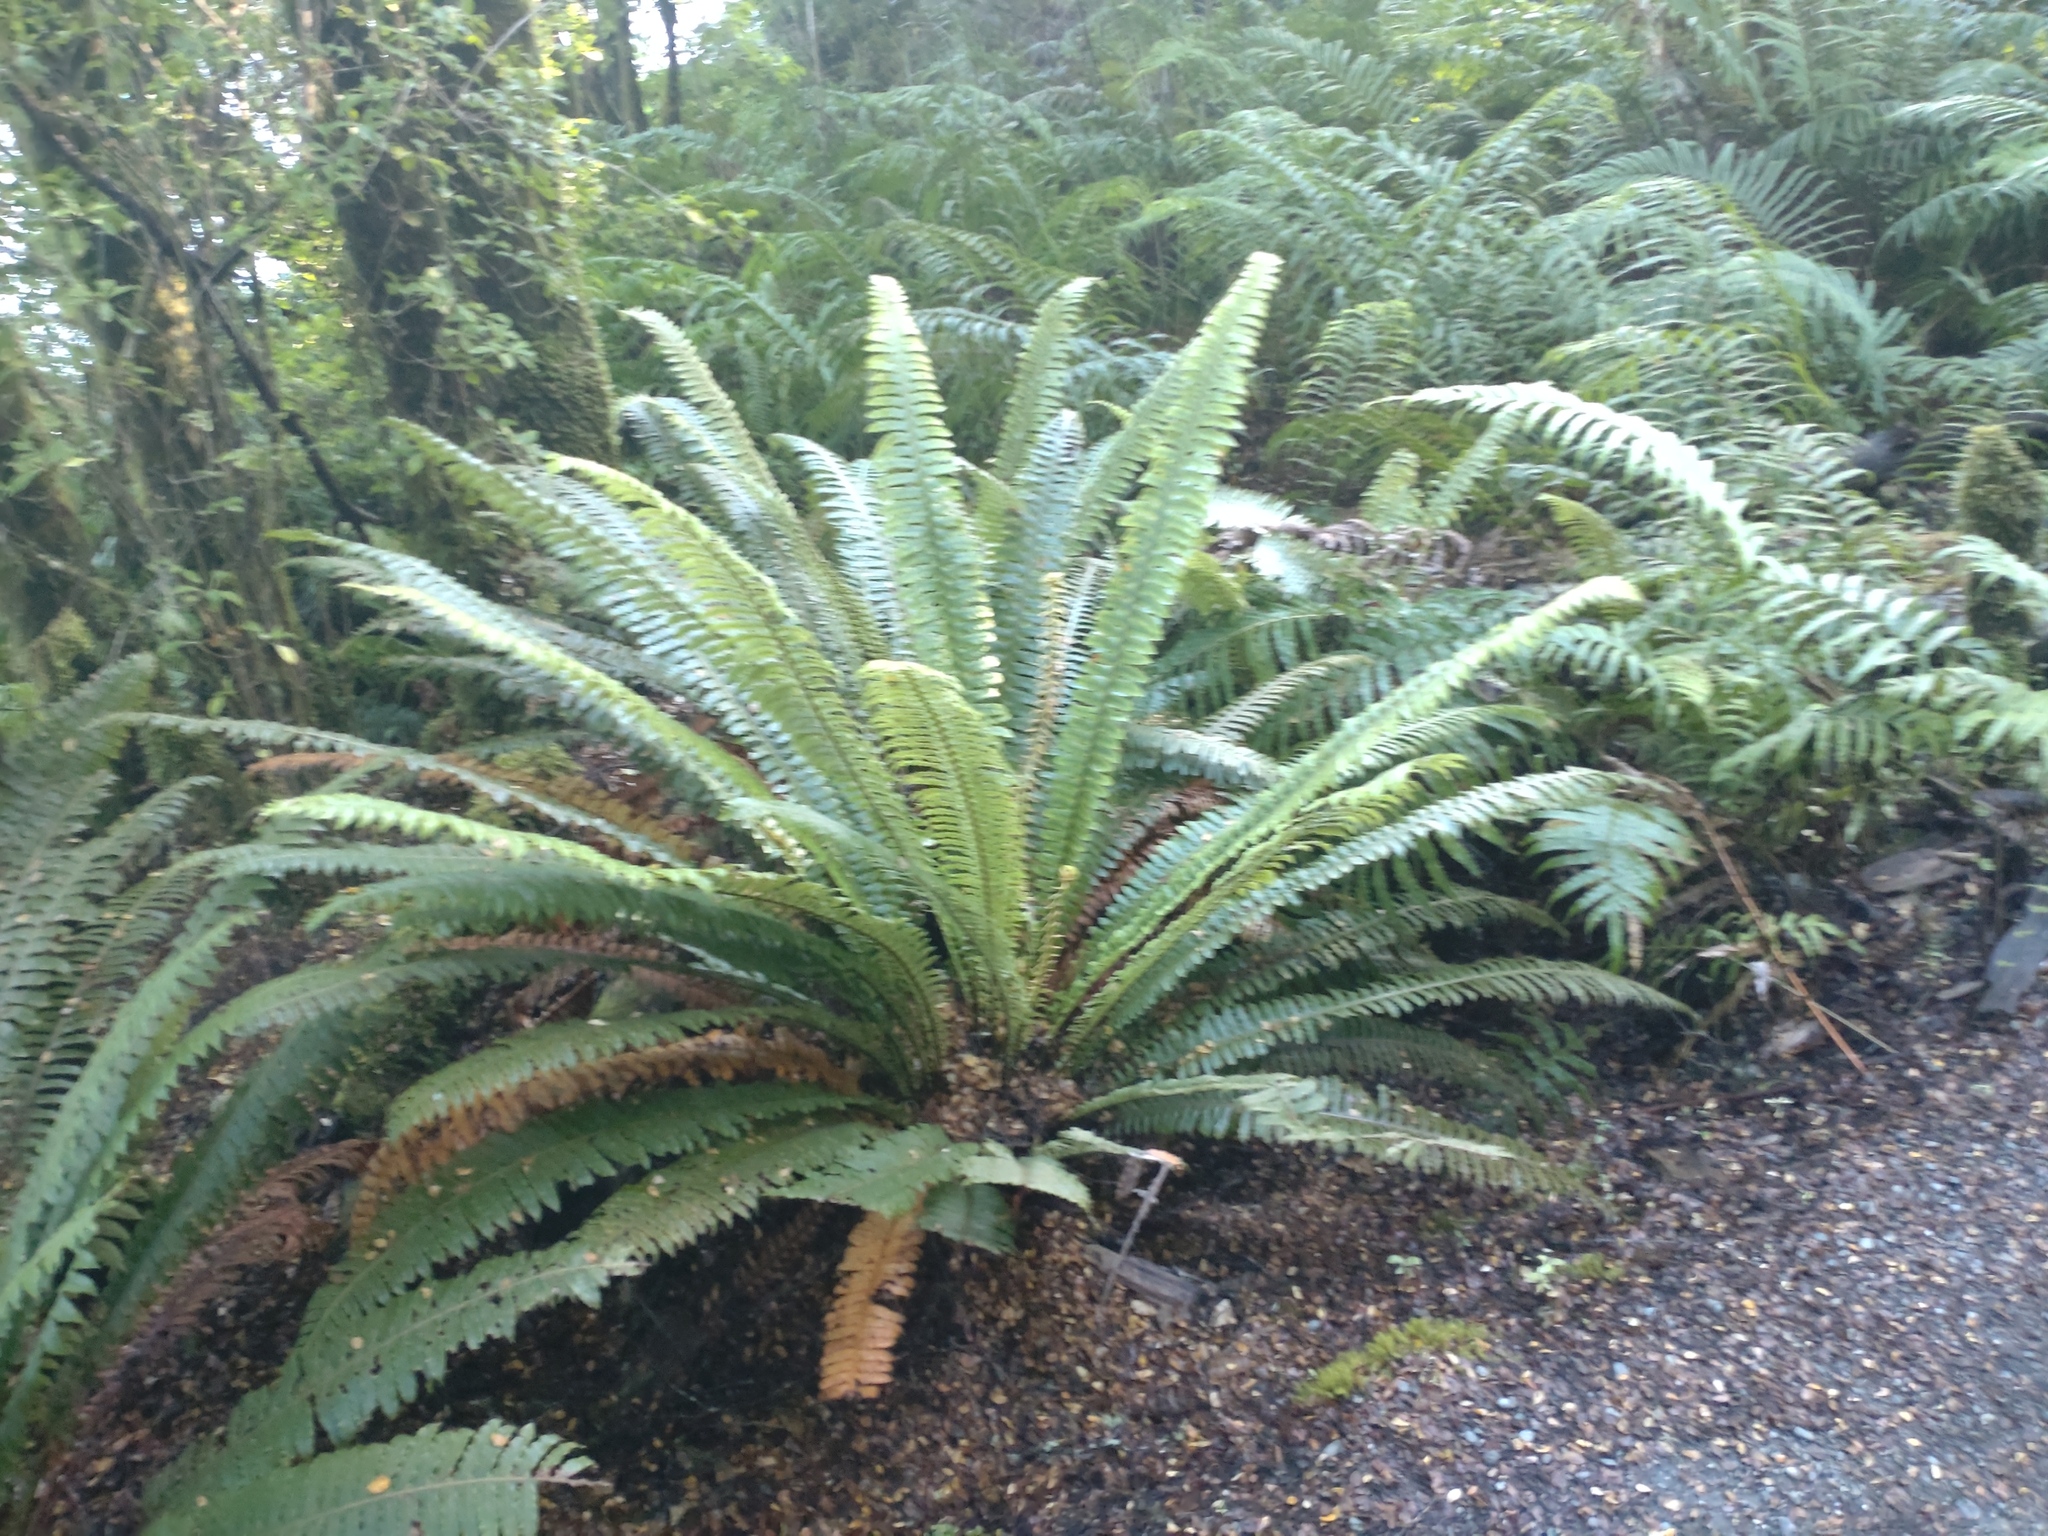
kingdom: Plantae
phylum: Tracheophyta
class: Polypodiopsida
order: Polypodiales
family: Blechnaceae
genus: Lomaria
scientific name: Lomaria discolor
